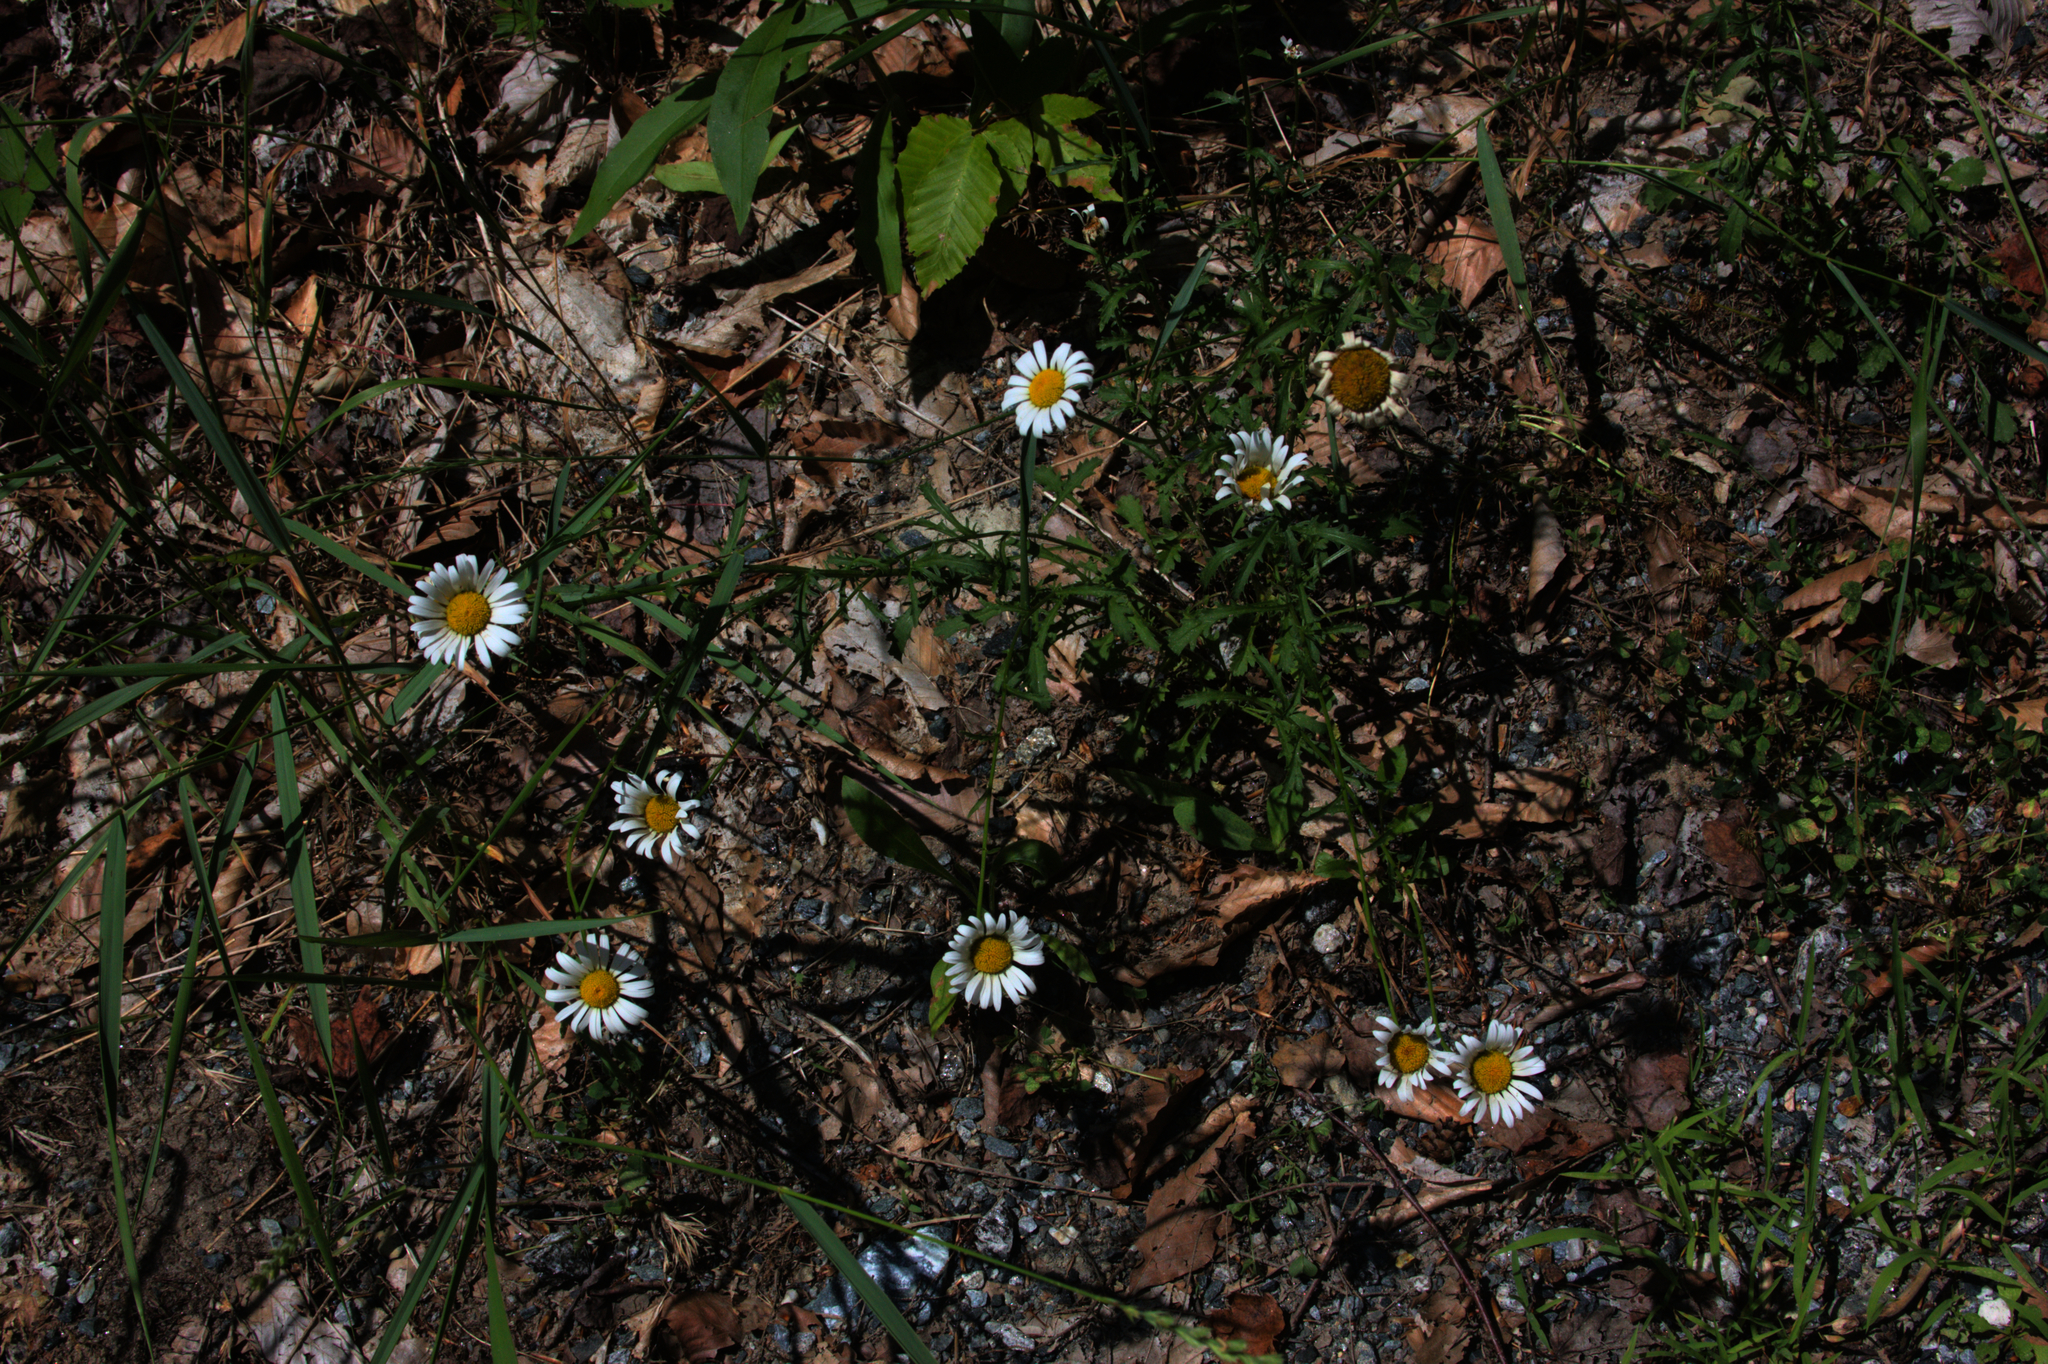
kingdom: Plantae
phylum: Tracheophyta
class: Magnoliopsida
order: Asterales
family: Asteraceae
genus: Leucanthemum
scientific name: Leucanthemum vulgare
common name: Oxeye daisy
